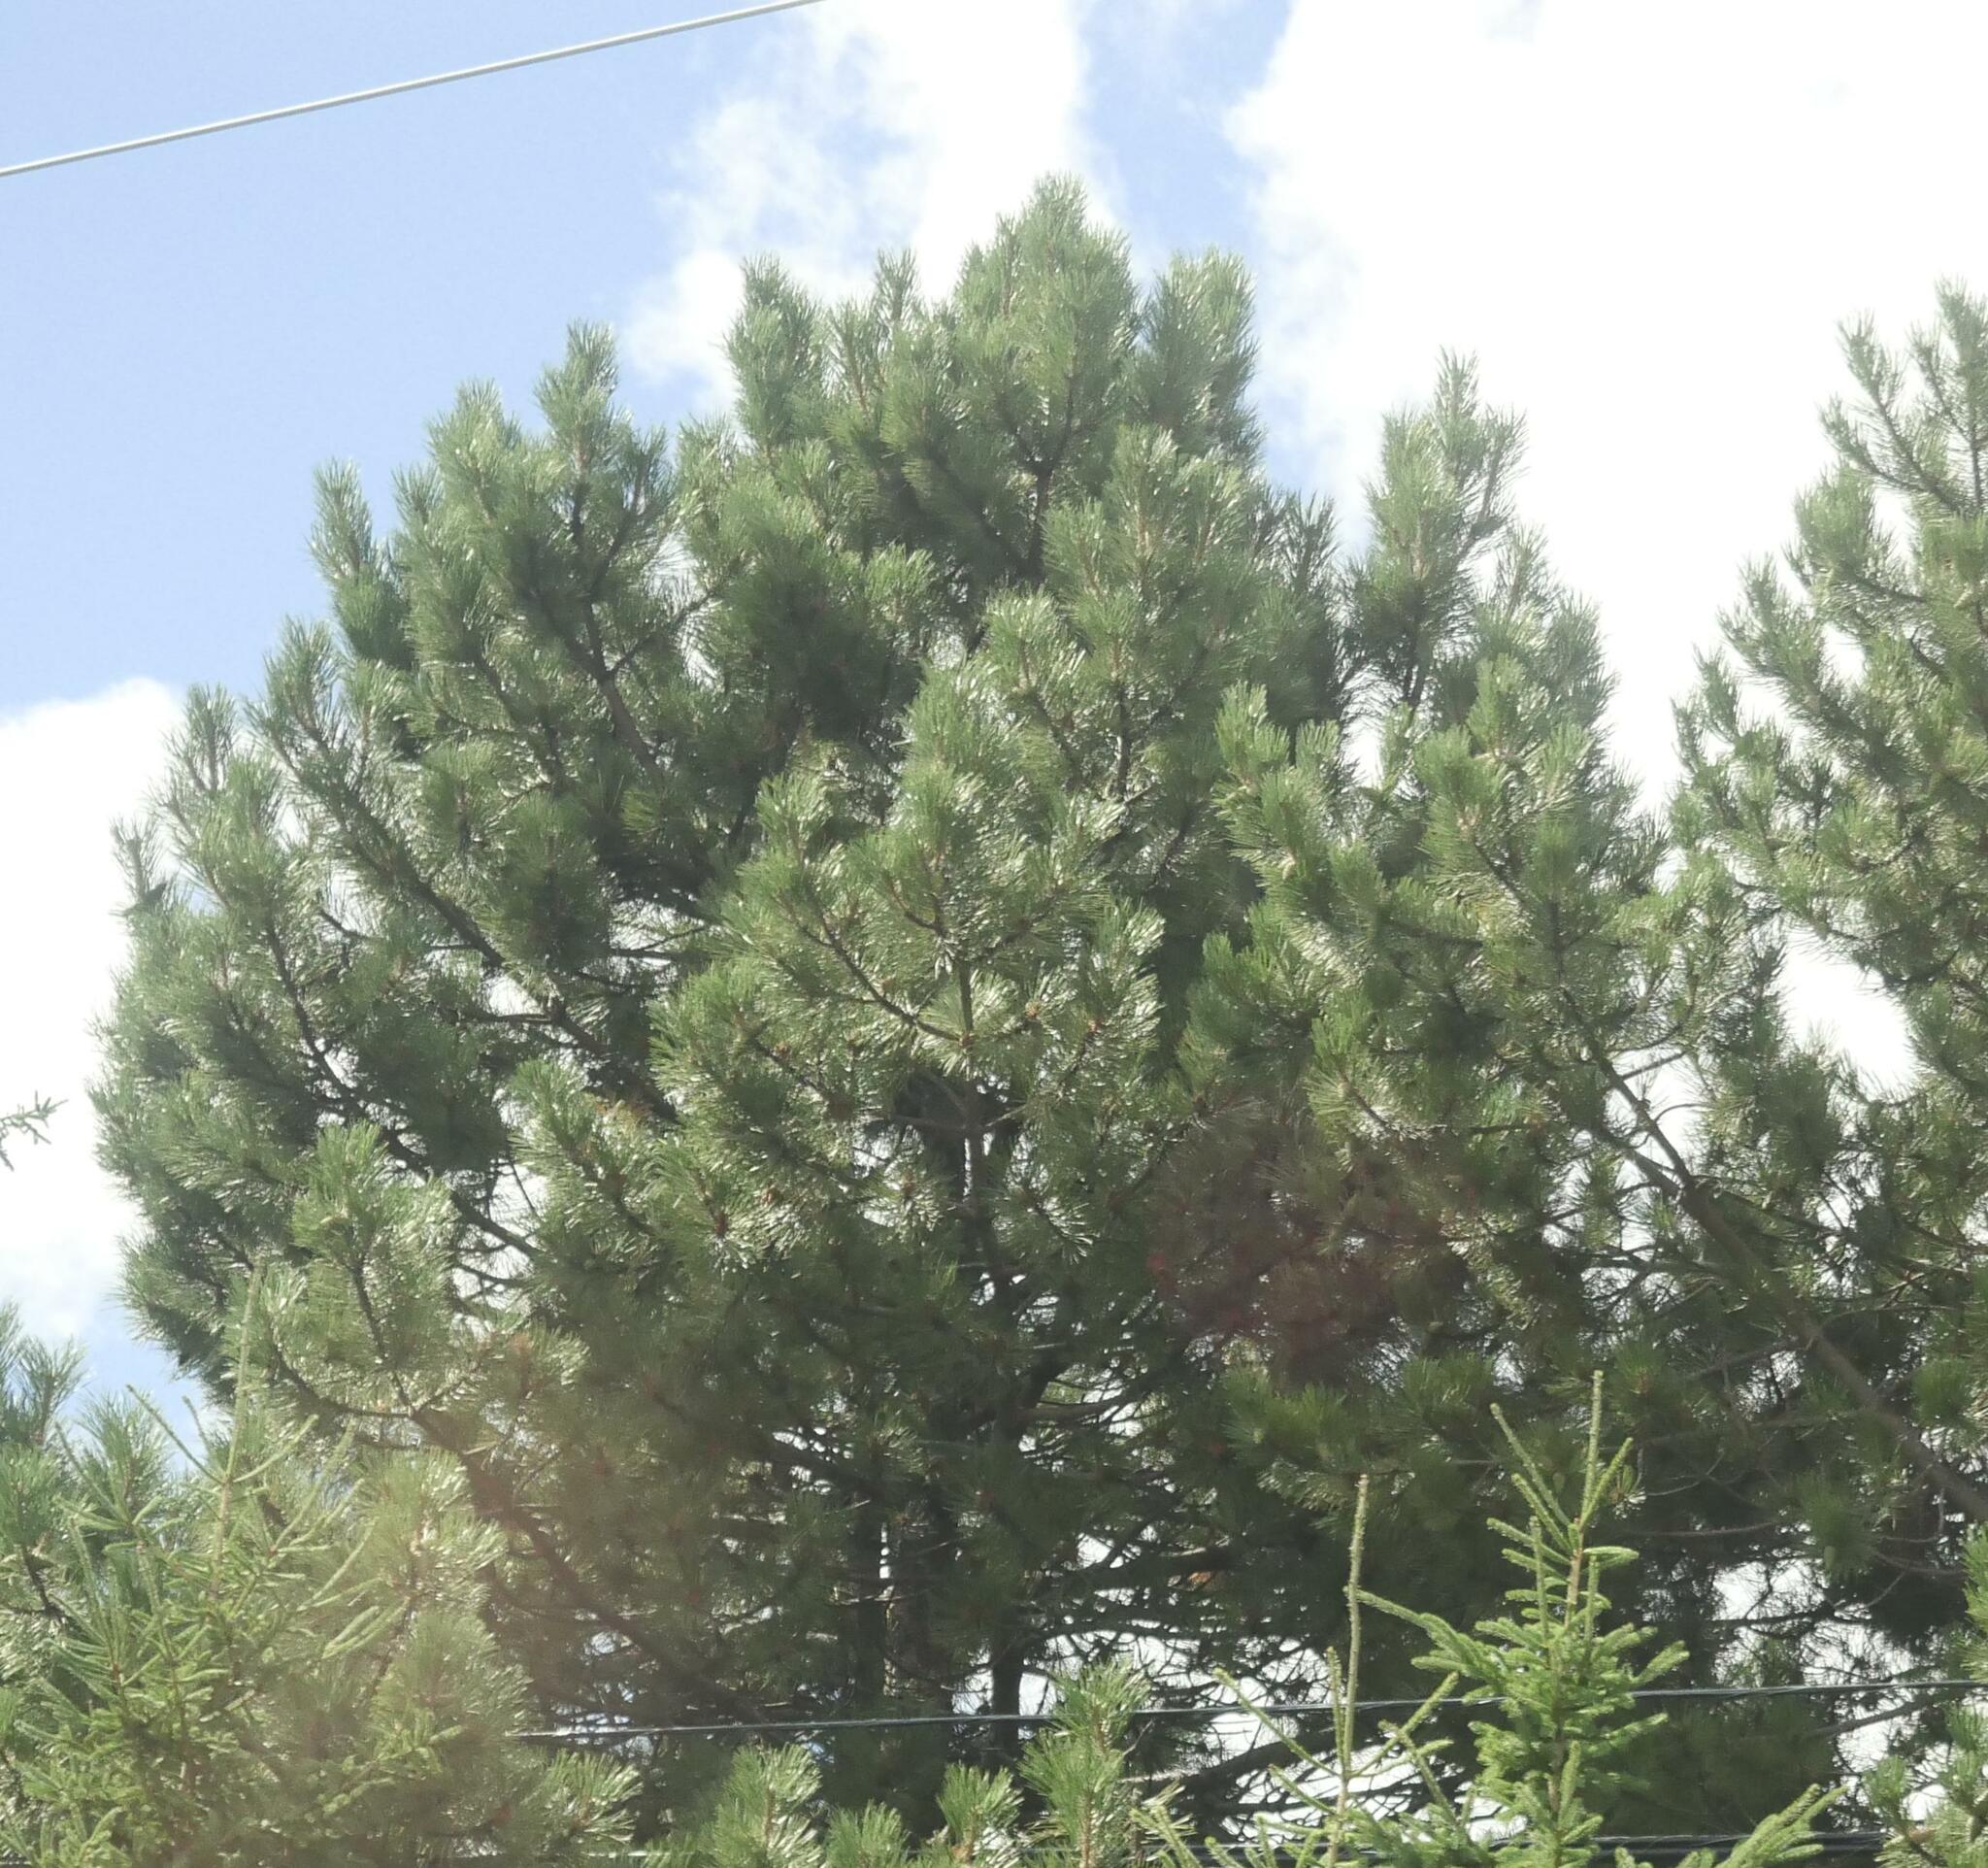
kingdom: Plantae
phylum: Tracheophyta
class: Pinopsida
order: Pinales
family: Pinaceae
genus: Pinus
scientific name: Pinus strobus
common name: Weymouth pine
